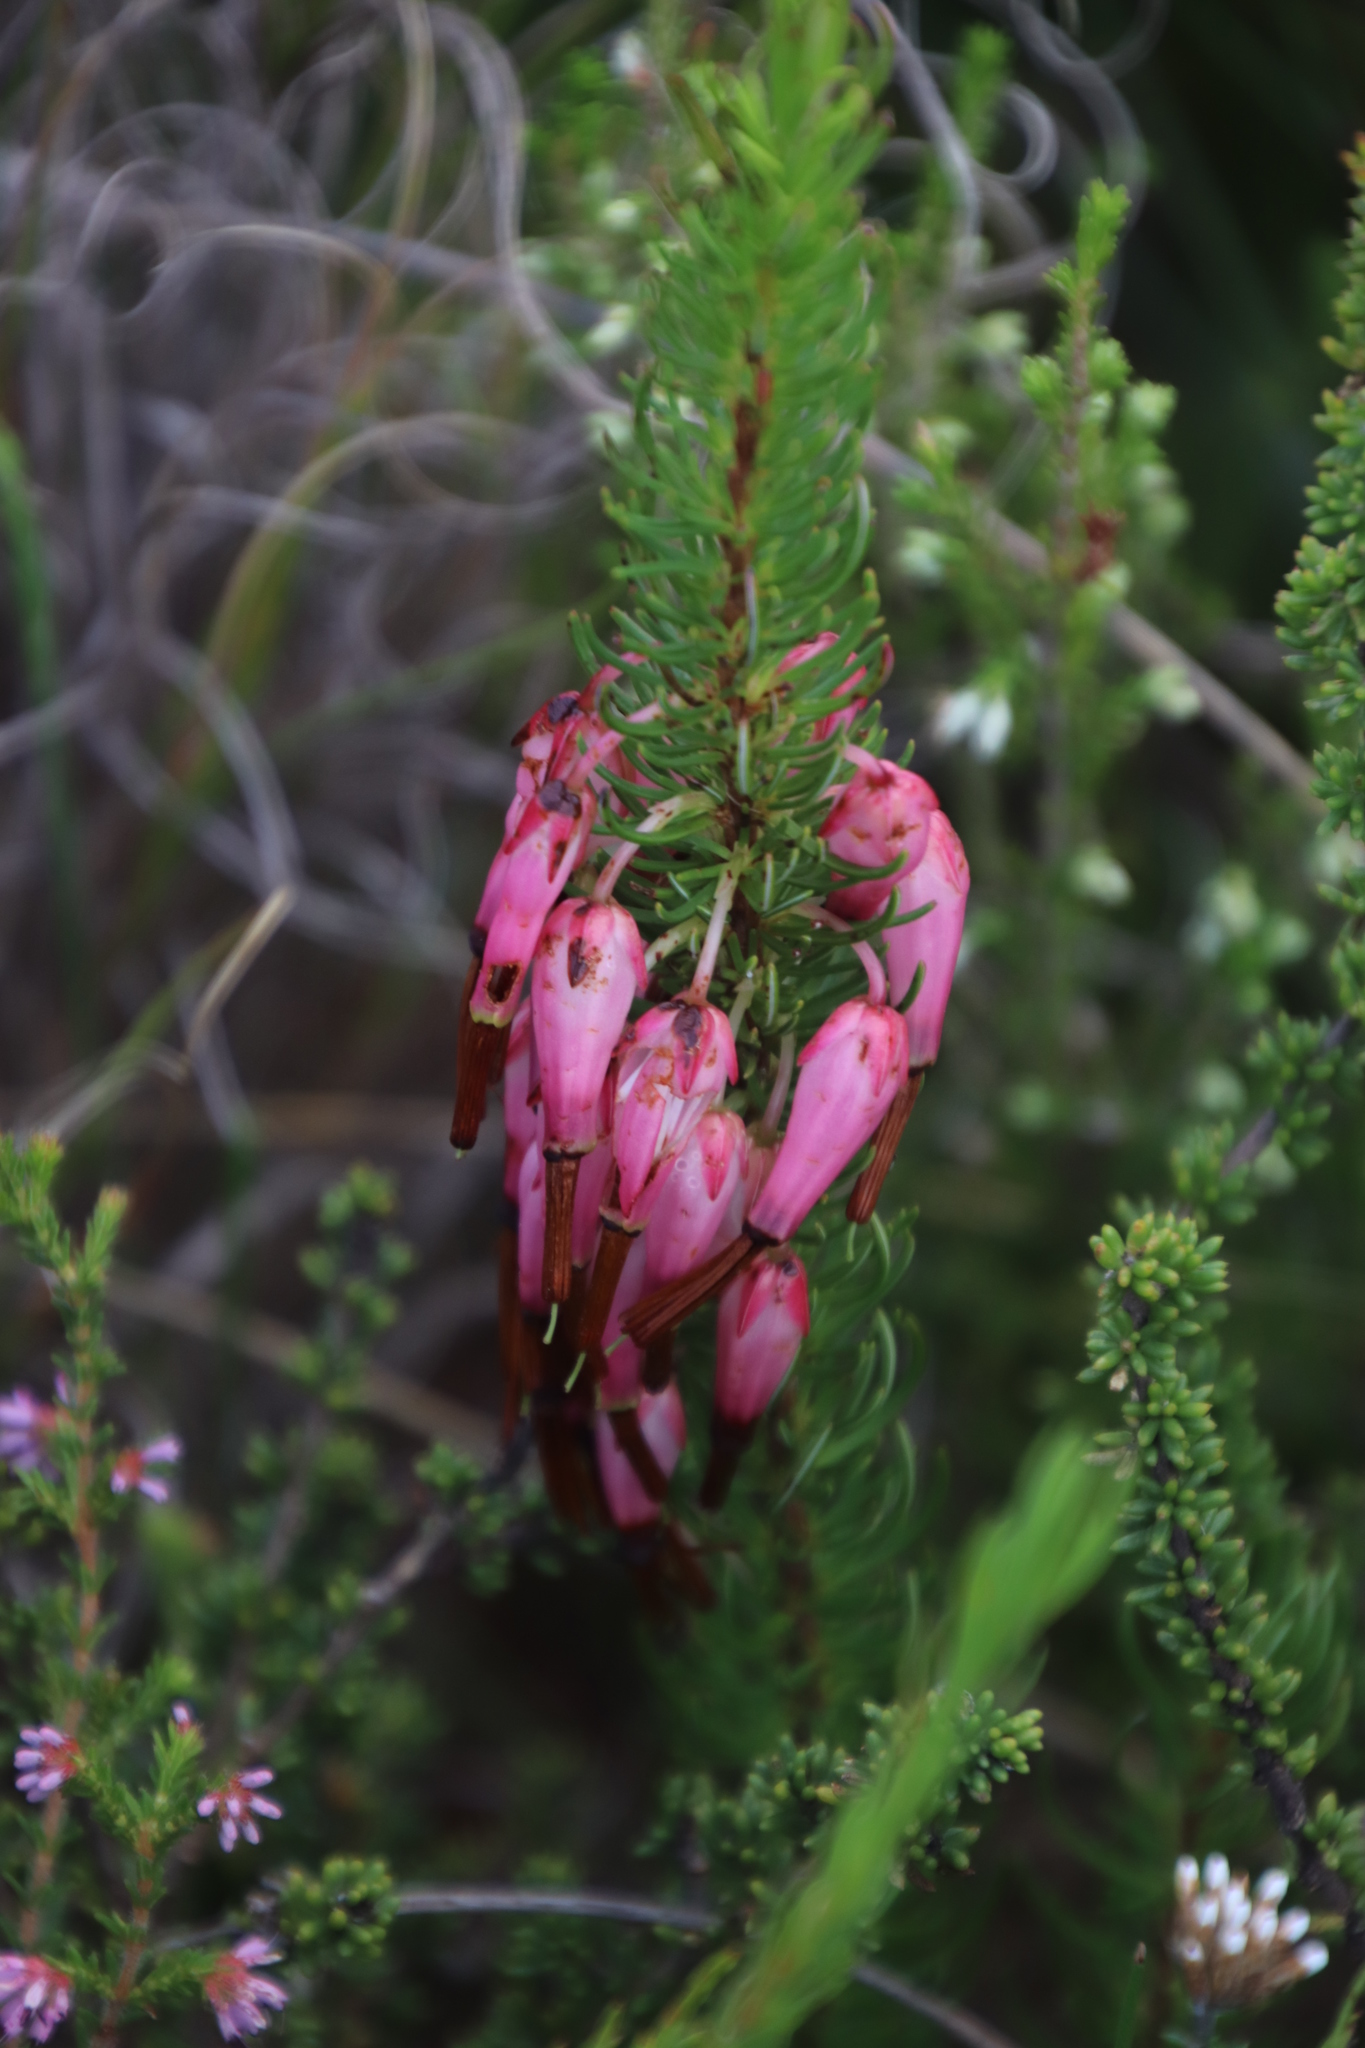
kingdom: Plantae
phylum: Tracheophyta
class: Magnoliopsida
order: Ericales
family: Ericaceae
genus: Erica
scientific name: Erica plukenetii
